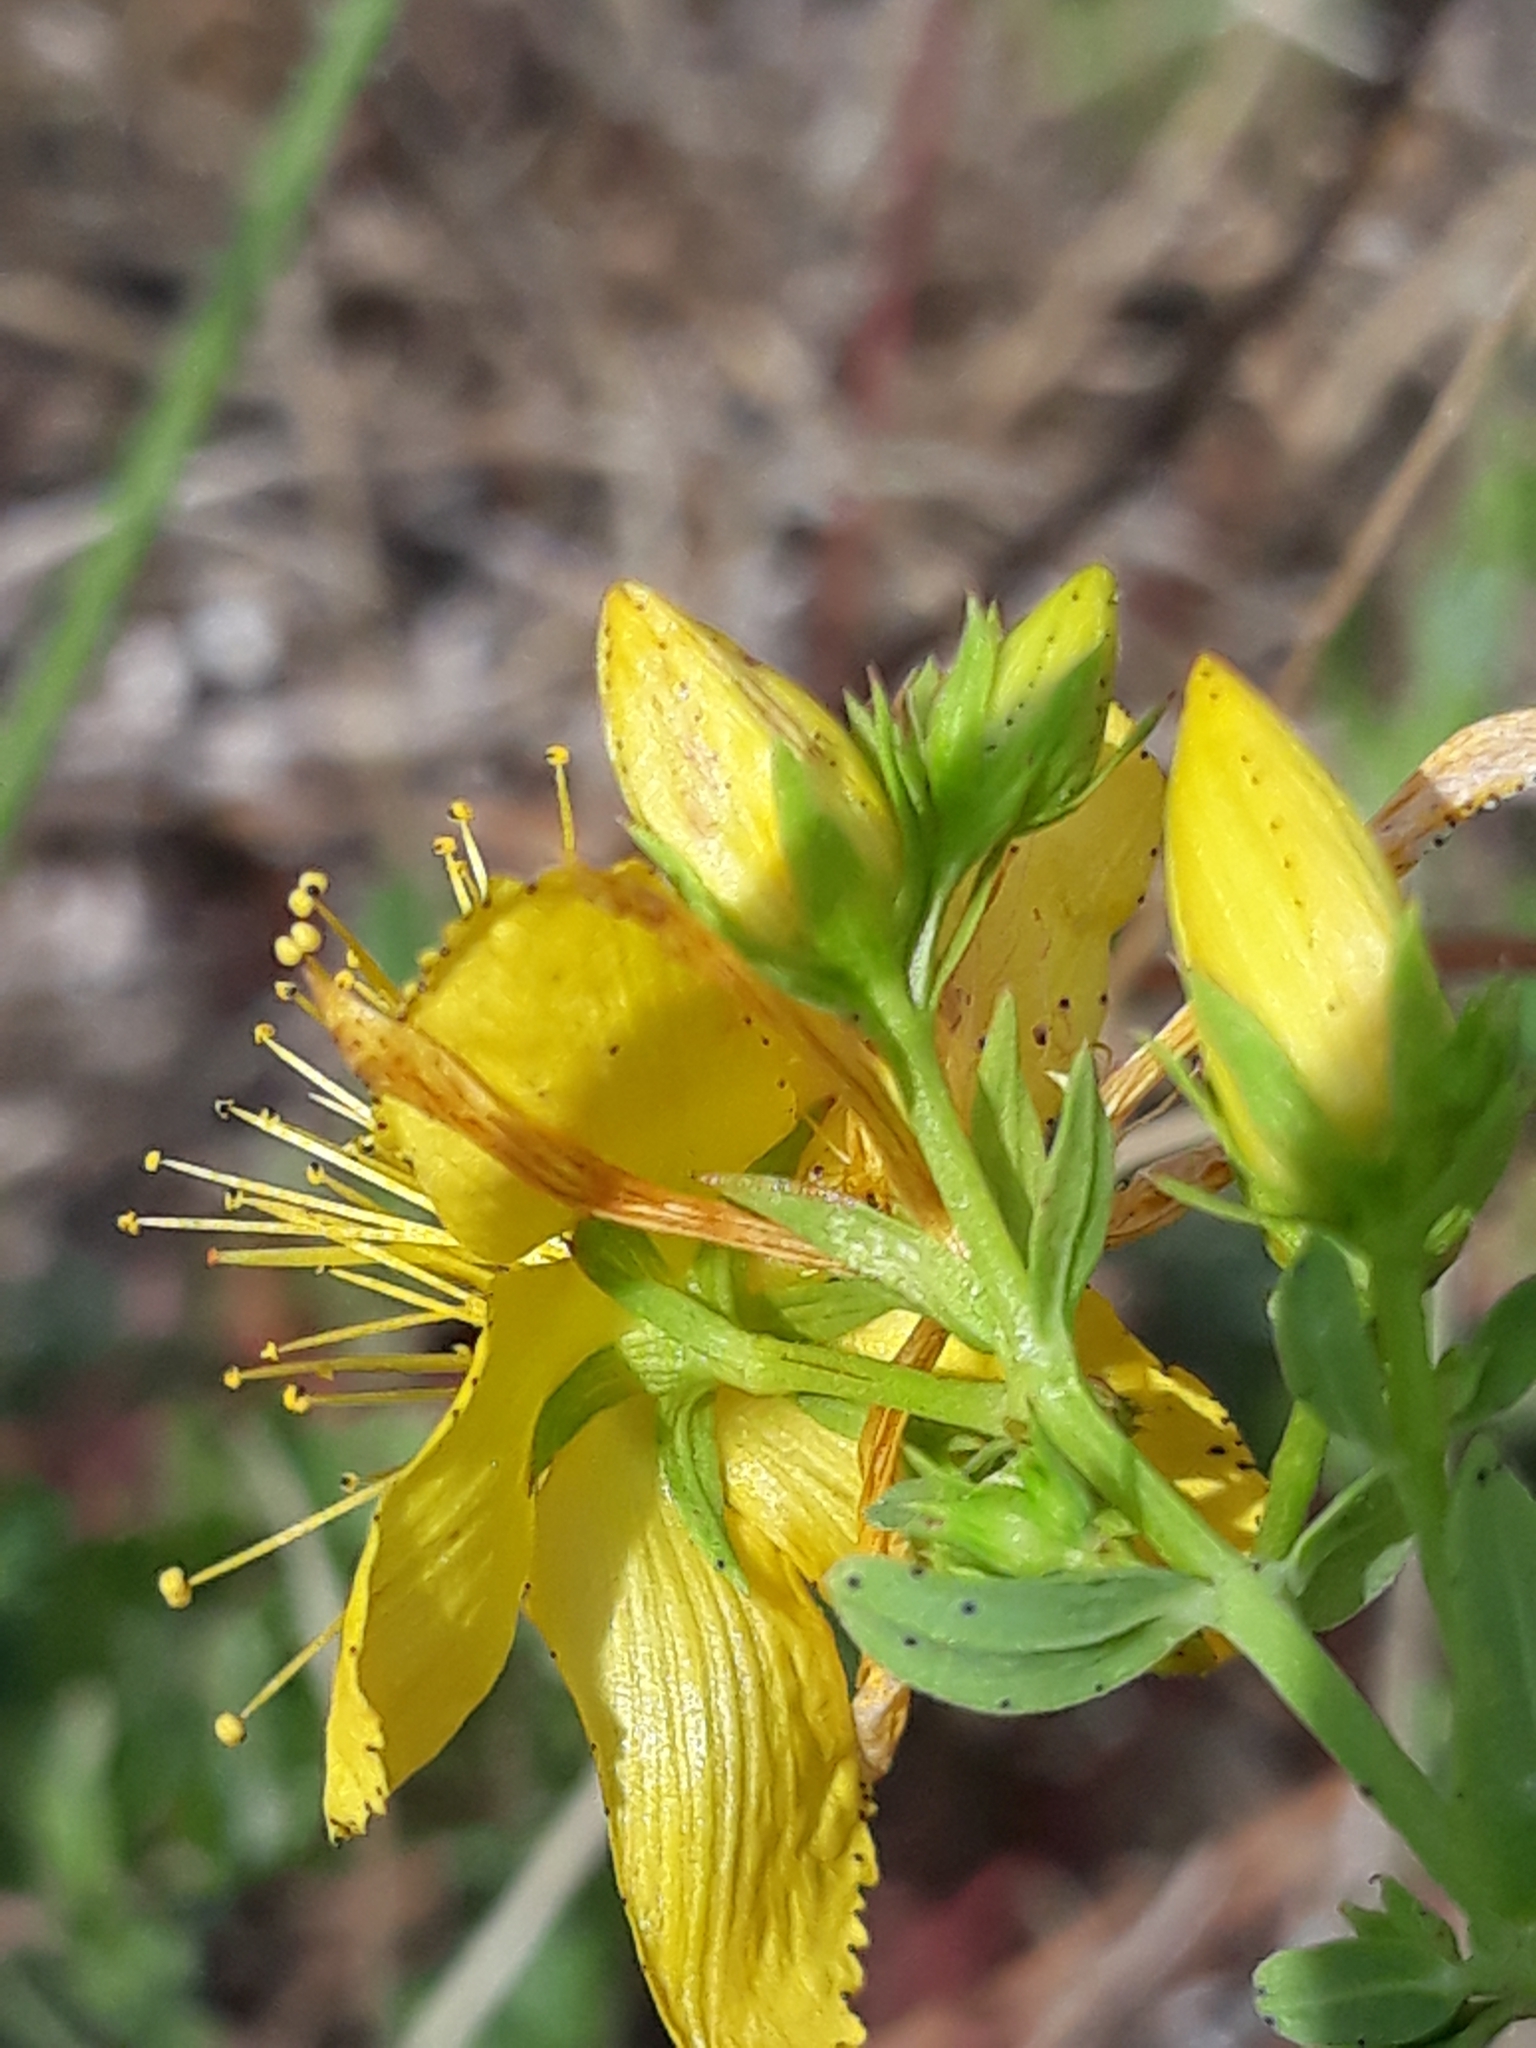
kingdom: Plantae
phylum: Tracheophyta
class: Magnoliopsida
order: Malpighiales
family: Hypericaceae
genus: Hypericum
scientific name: Hypericum perforatum
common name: Common st. johnswort
